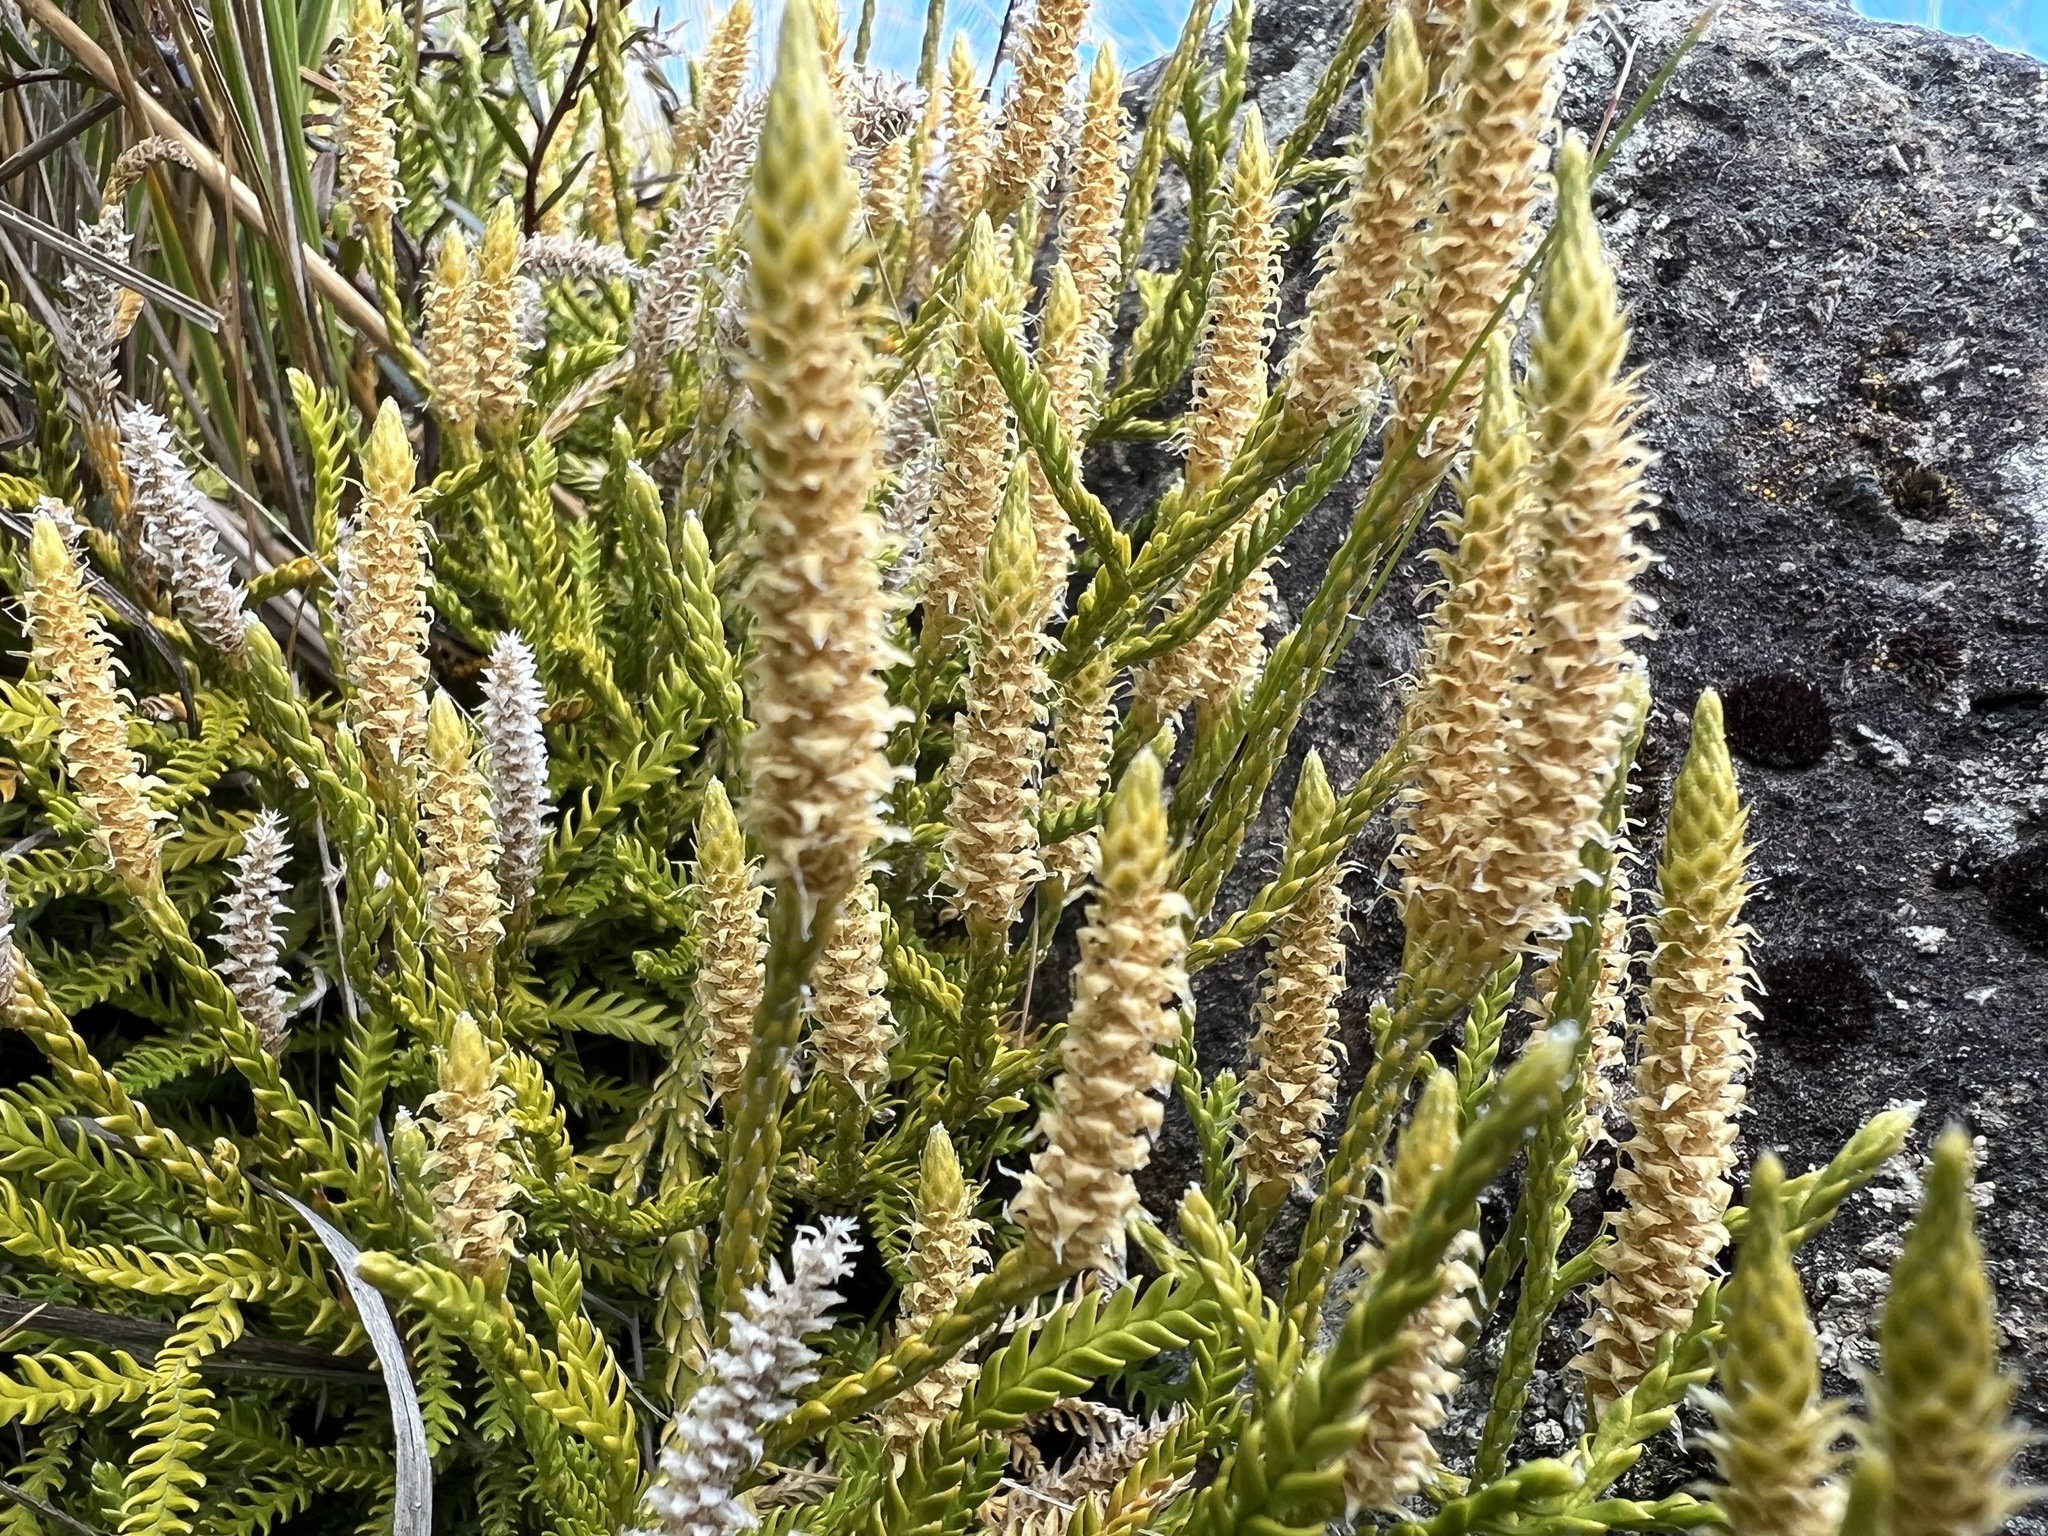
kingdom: Plantae
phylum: Tracheophyta
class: Lycopodiopsida
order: Lycopodiales
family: Lycopodiaceae
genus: Diphasium
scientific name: Diphasium scariosum
